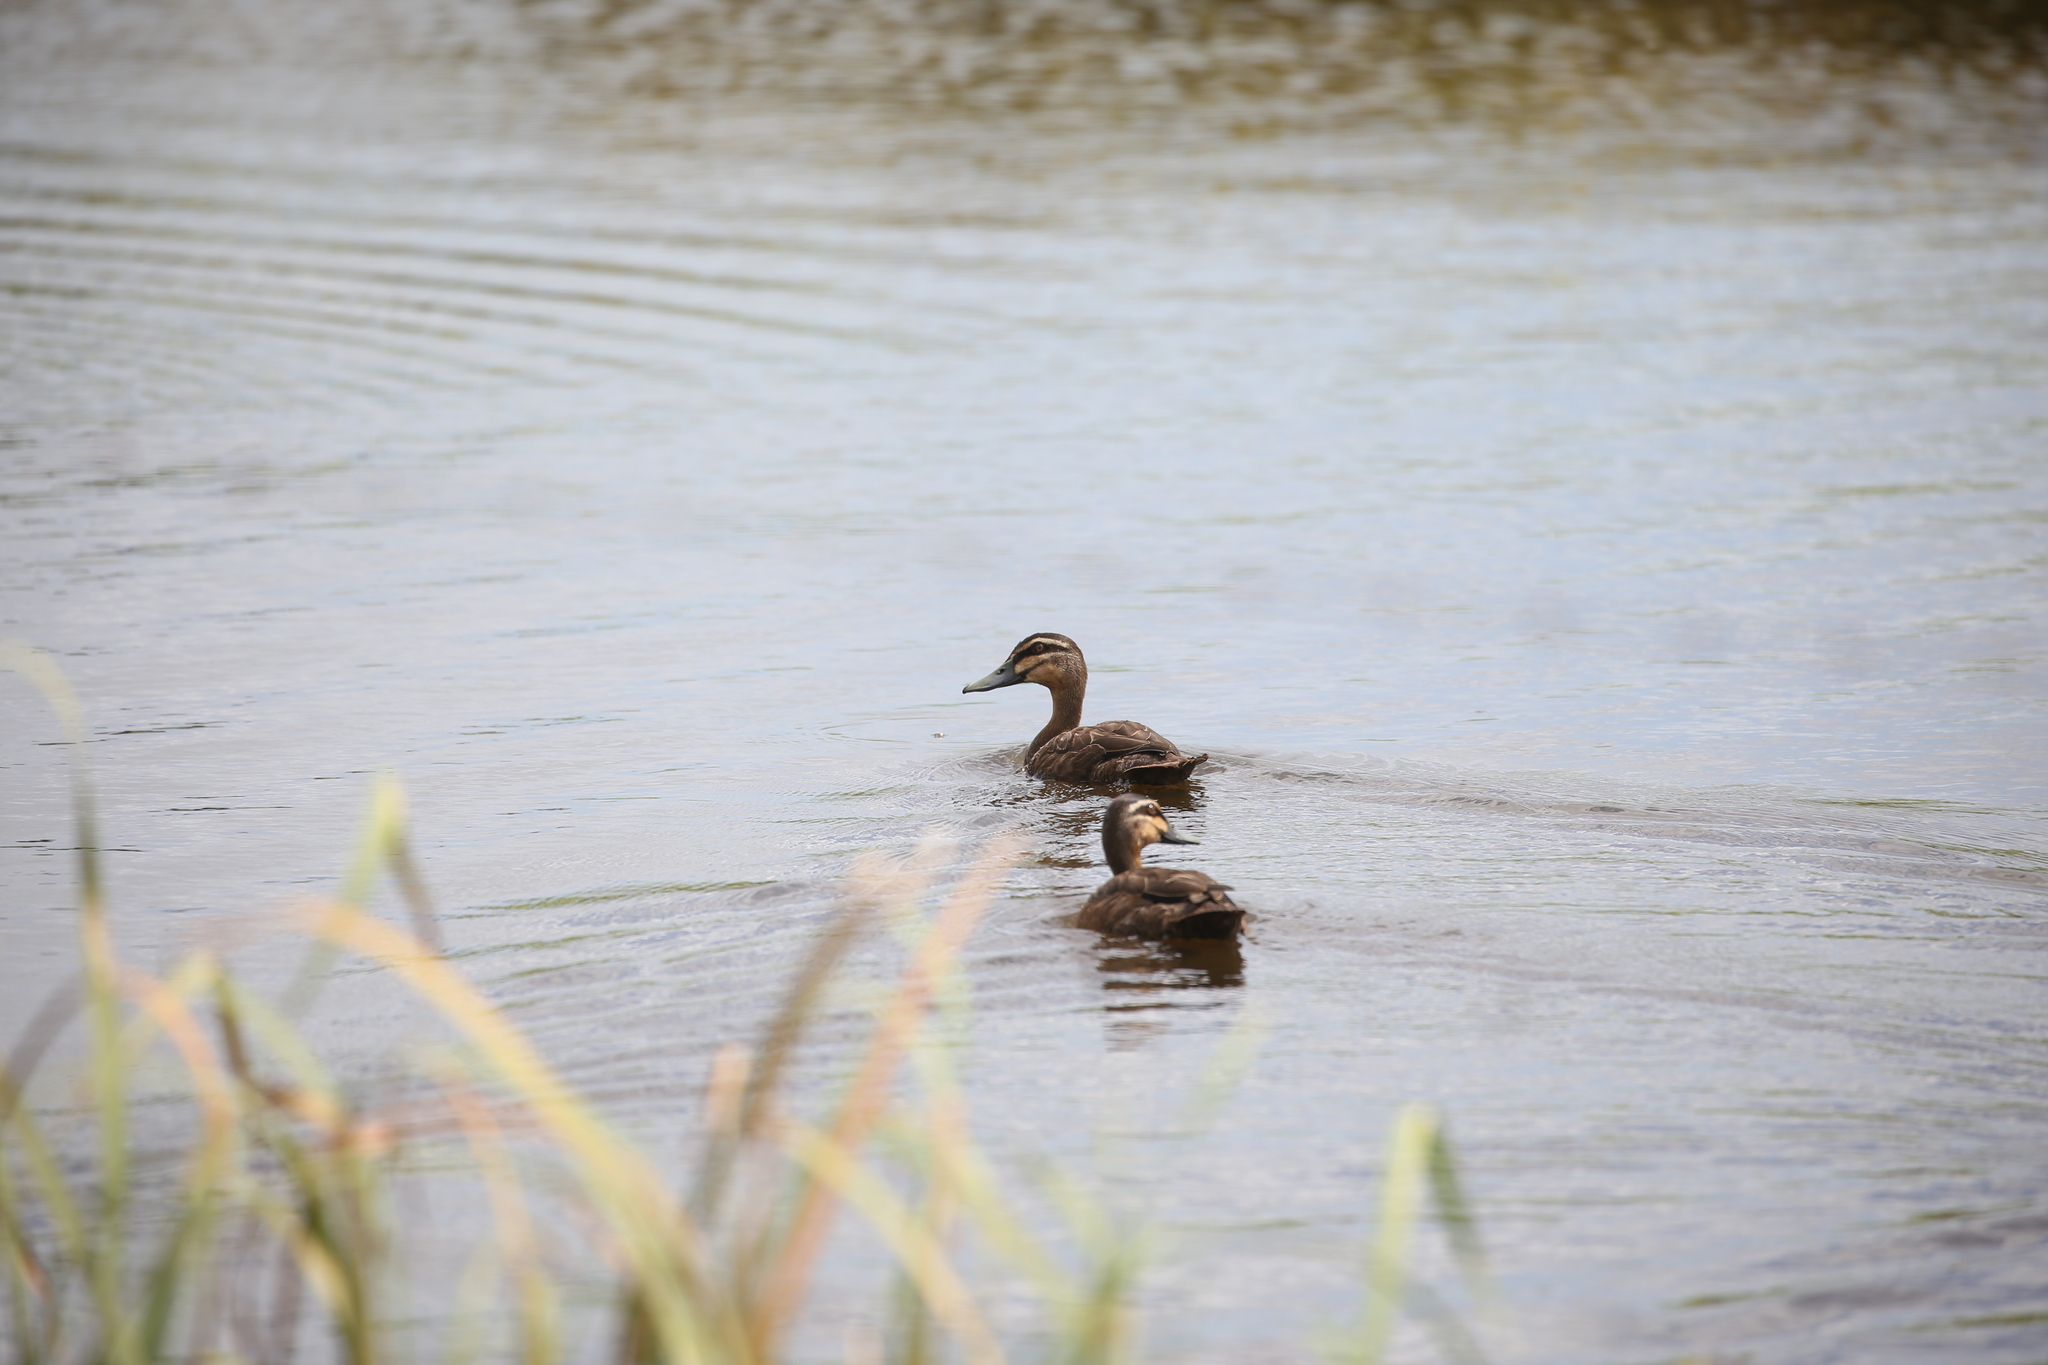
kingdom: Animalia
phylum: Chordata
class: Aves
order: Anseriformes
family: Anatidae
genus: Anas
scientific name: Anas superciliosa
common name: Pacific black duck
